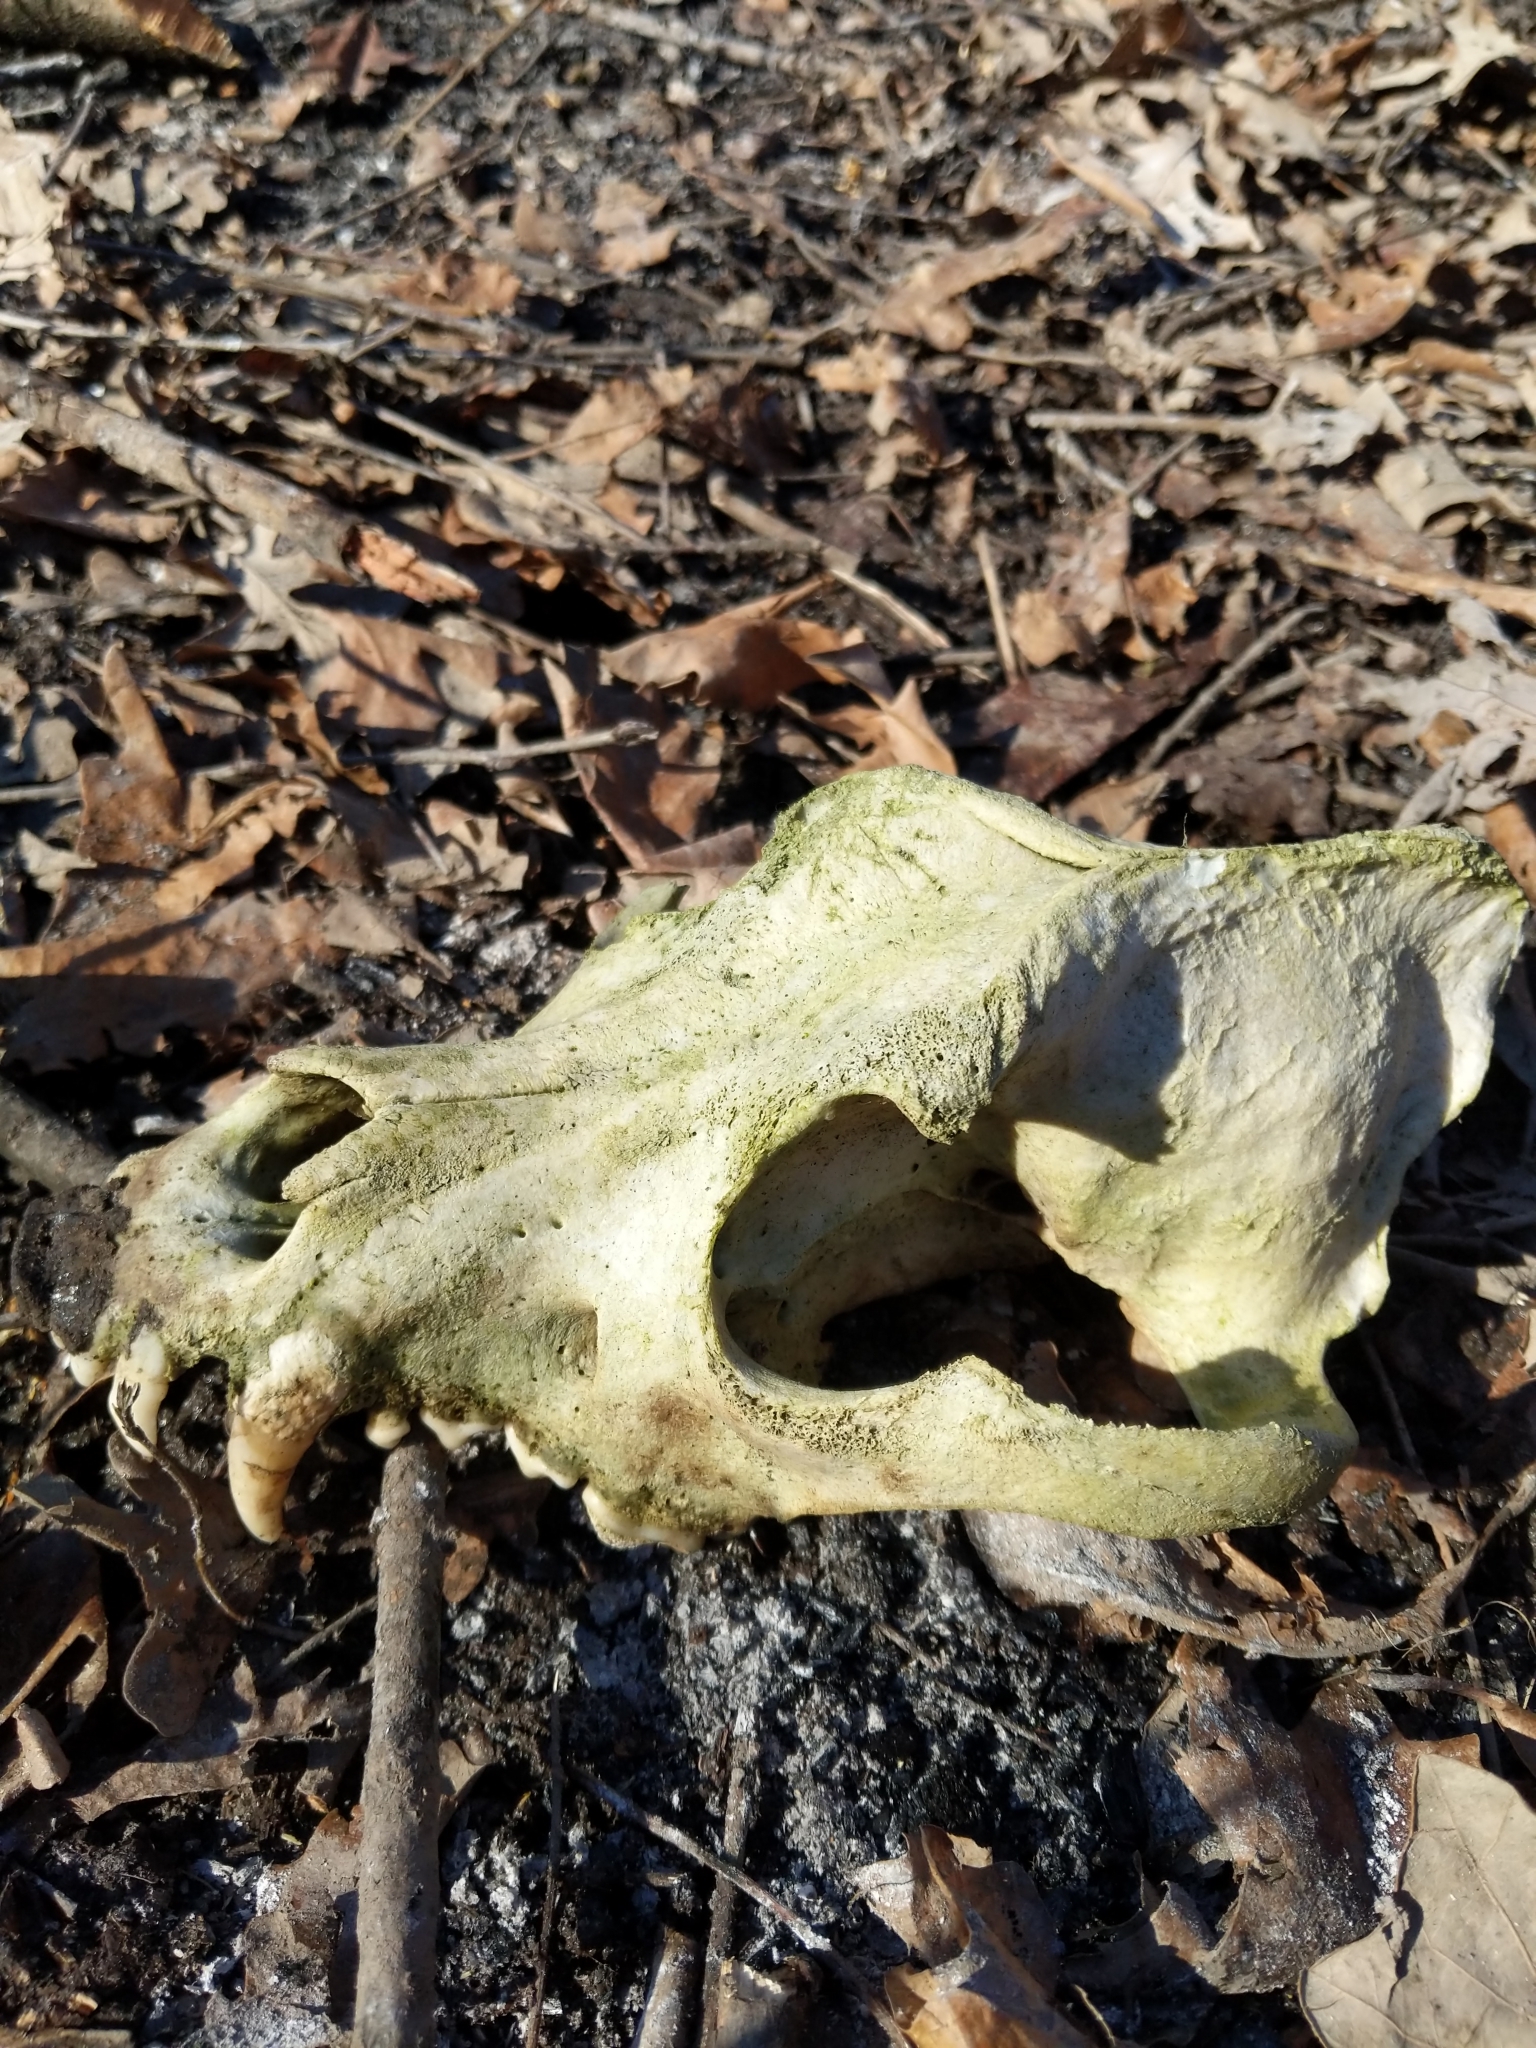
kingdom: Animalia
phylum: Chordata
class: Mammalia
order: Carnivora
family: Canidae
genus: Canis
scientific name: Canis lupus
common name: Gray wolf
